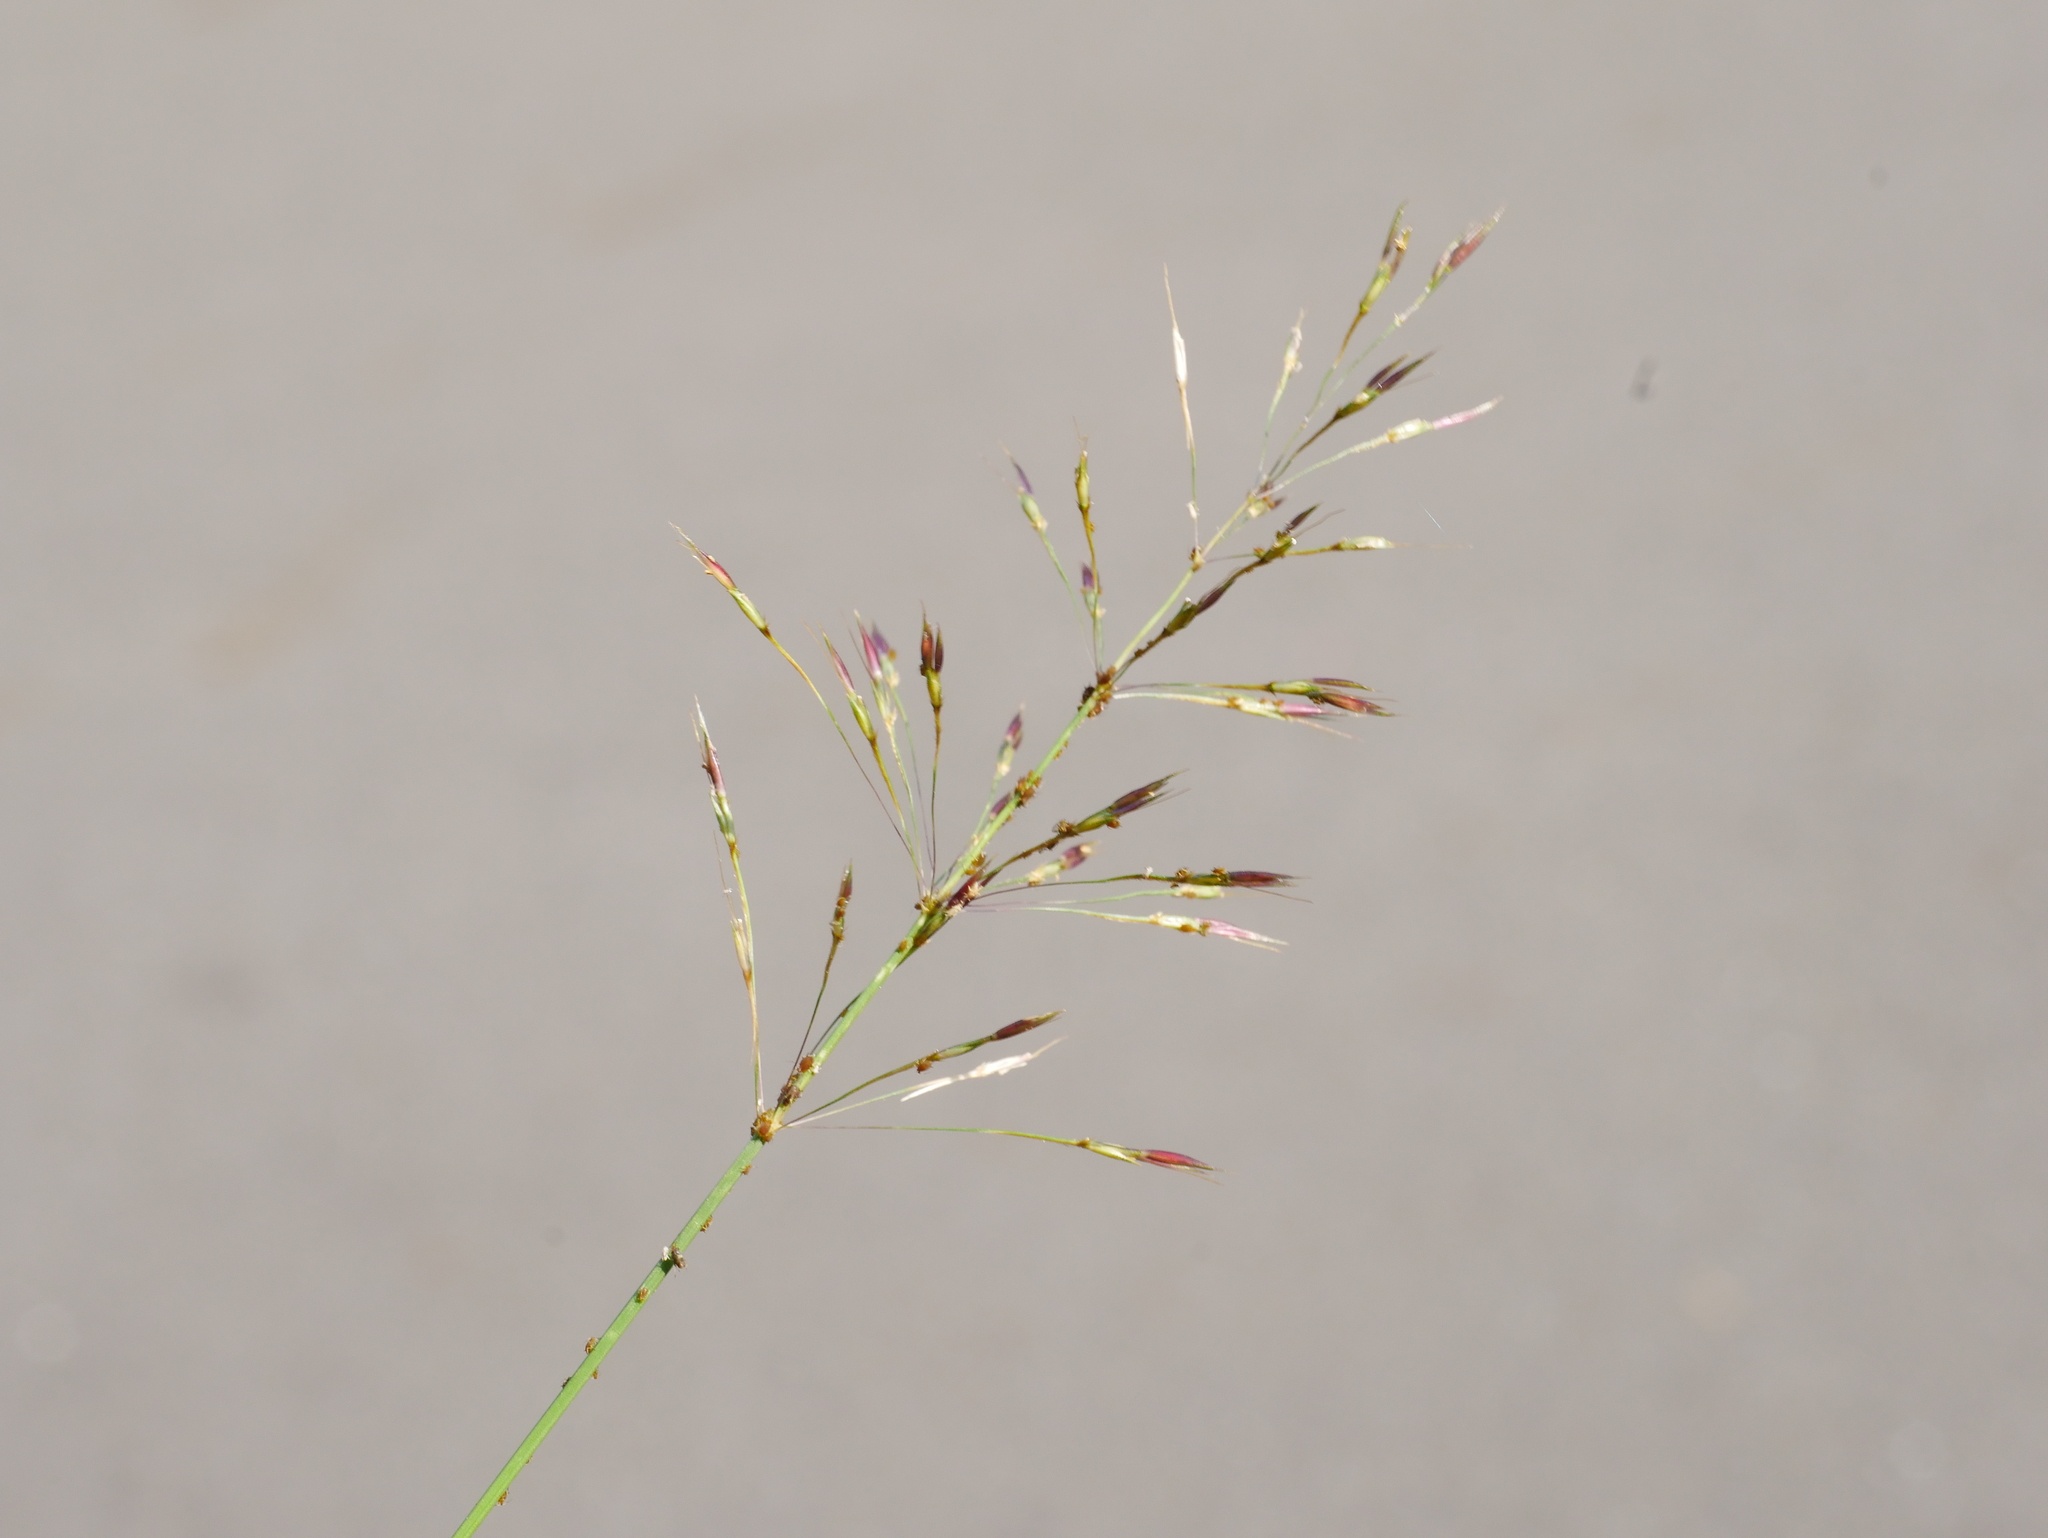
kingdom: Plantae
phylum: Tracheophyta
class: Liliopsida
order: Poales
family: Poaceae
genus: Chrysopogon
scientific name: Chrysopogon aciculatus
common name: Pilipiliula
